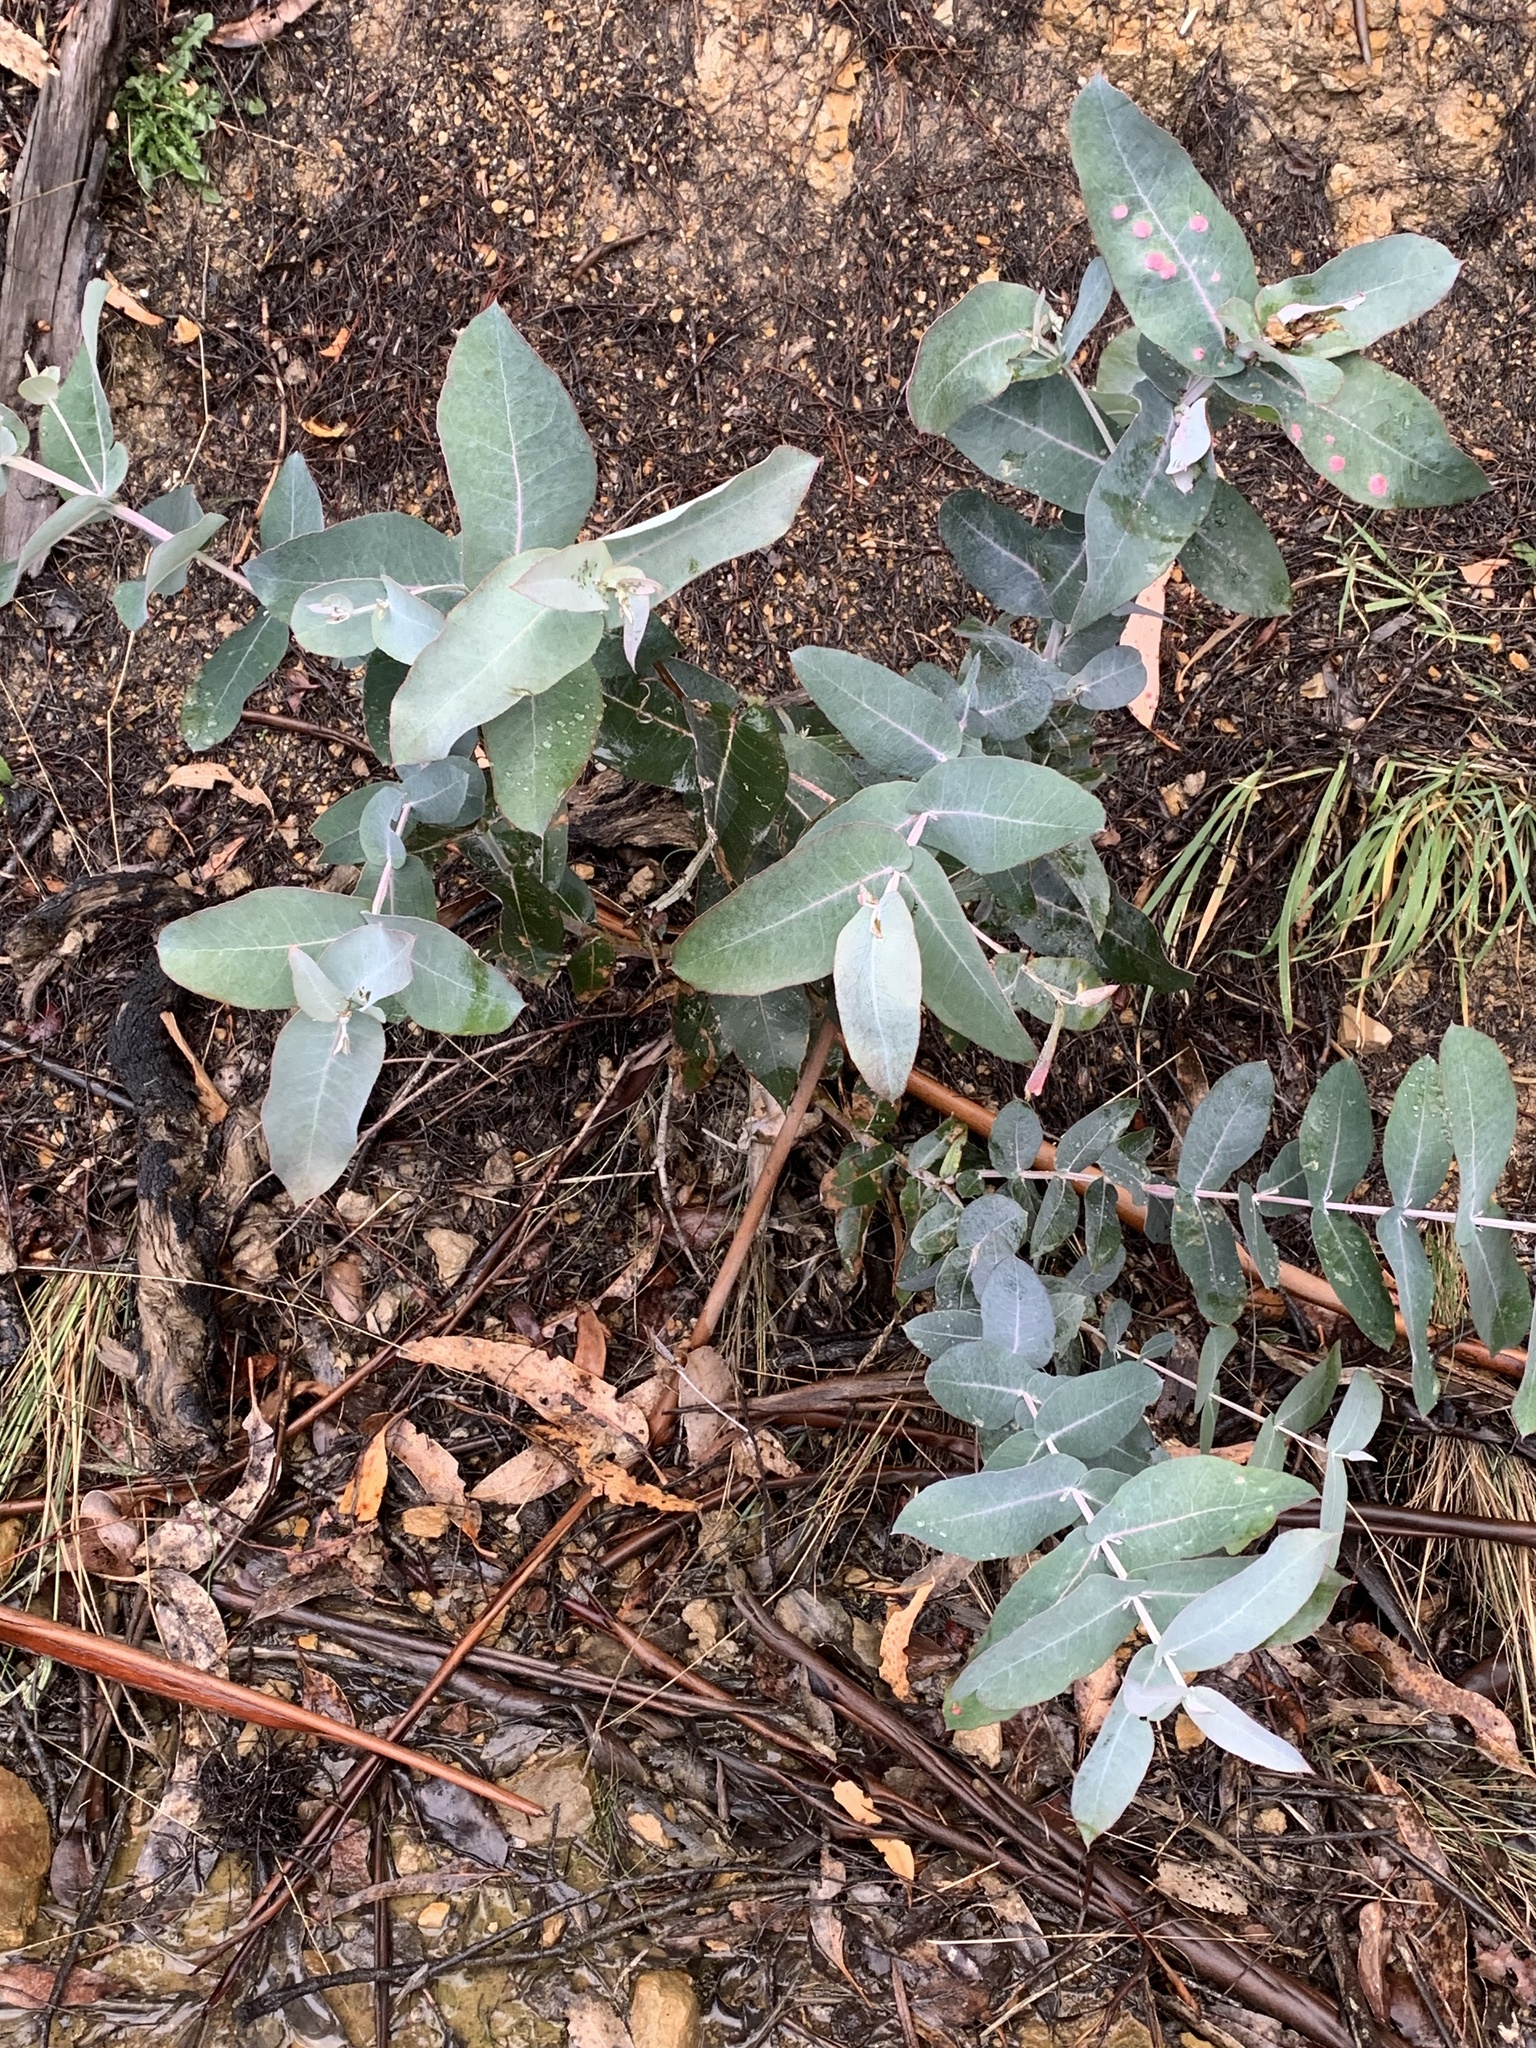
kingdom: Plantae
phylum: Tracheophyta
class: Magnoliopsida
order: Myrtales
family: Myrtaceae
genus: Eucalyptus
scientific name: Eucalyptus globulus
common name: Southern blue-gum
